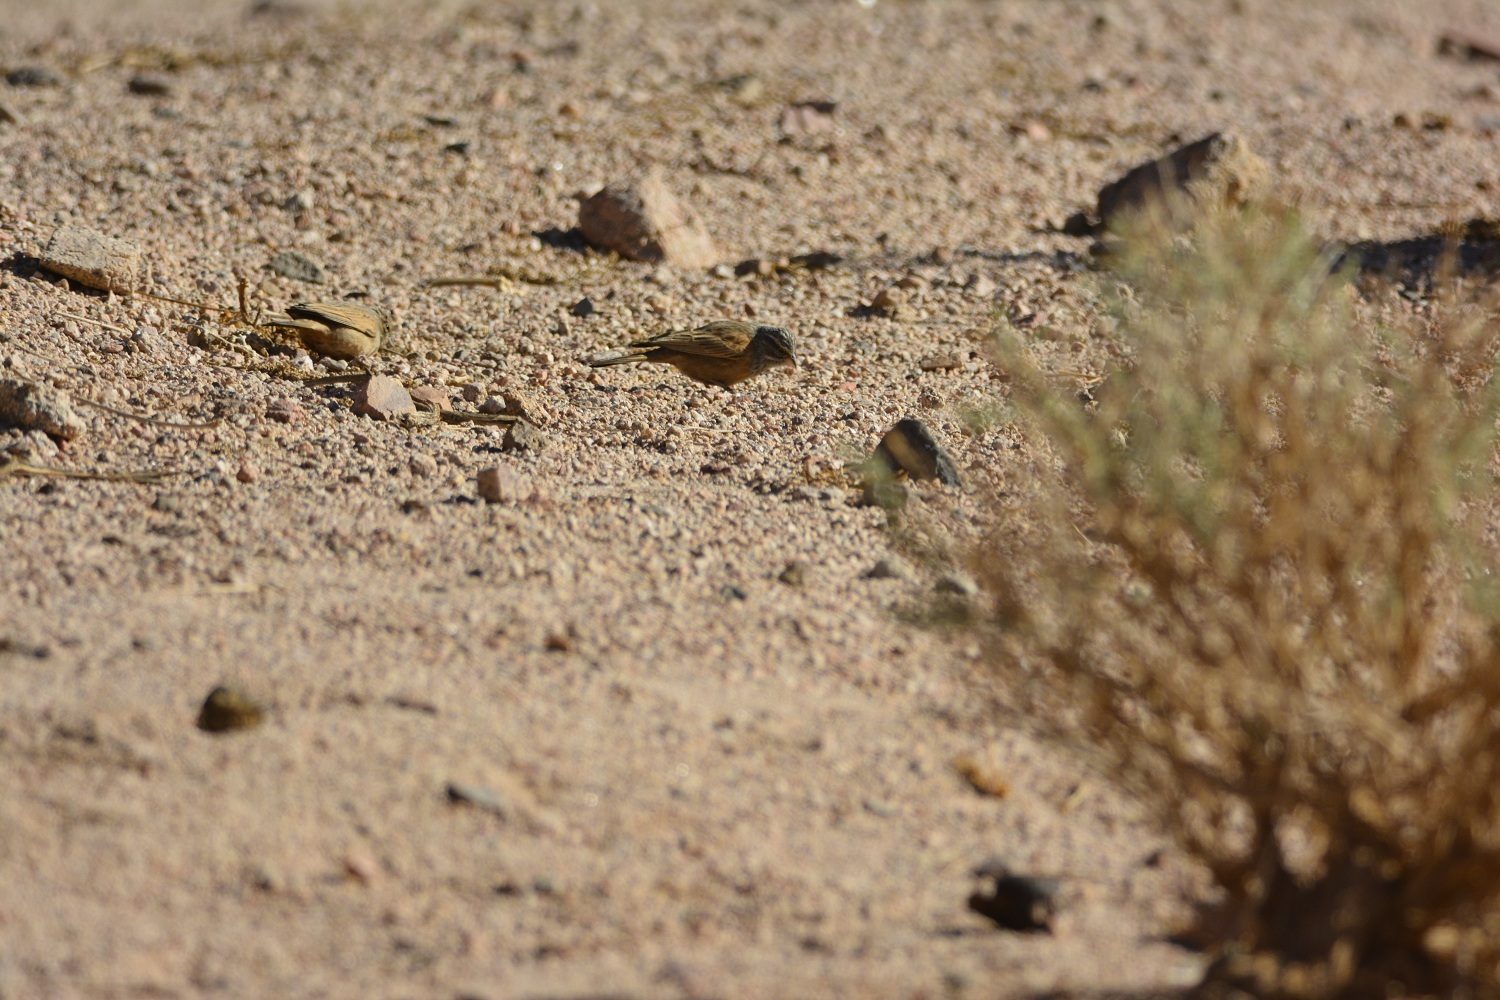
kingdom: Animalia
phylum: Chordata
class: Aves
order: Passeriformes
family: Emberizidae
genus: Emberiza
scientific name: Emberiza sahari
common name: House bunting
